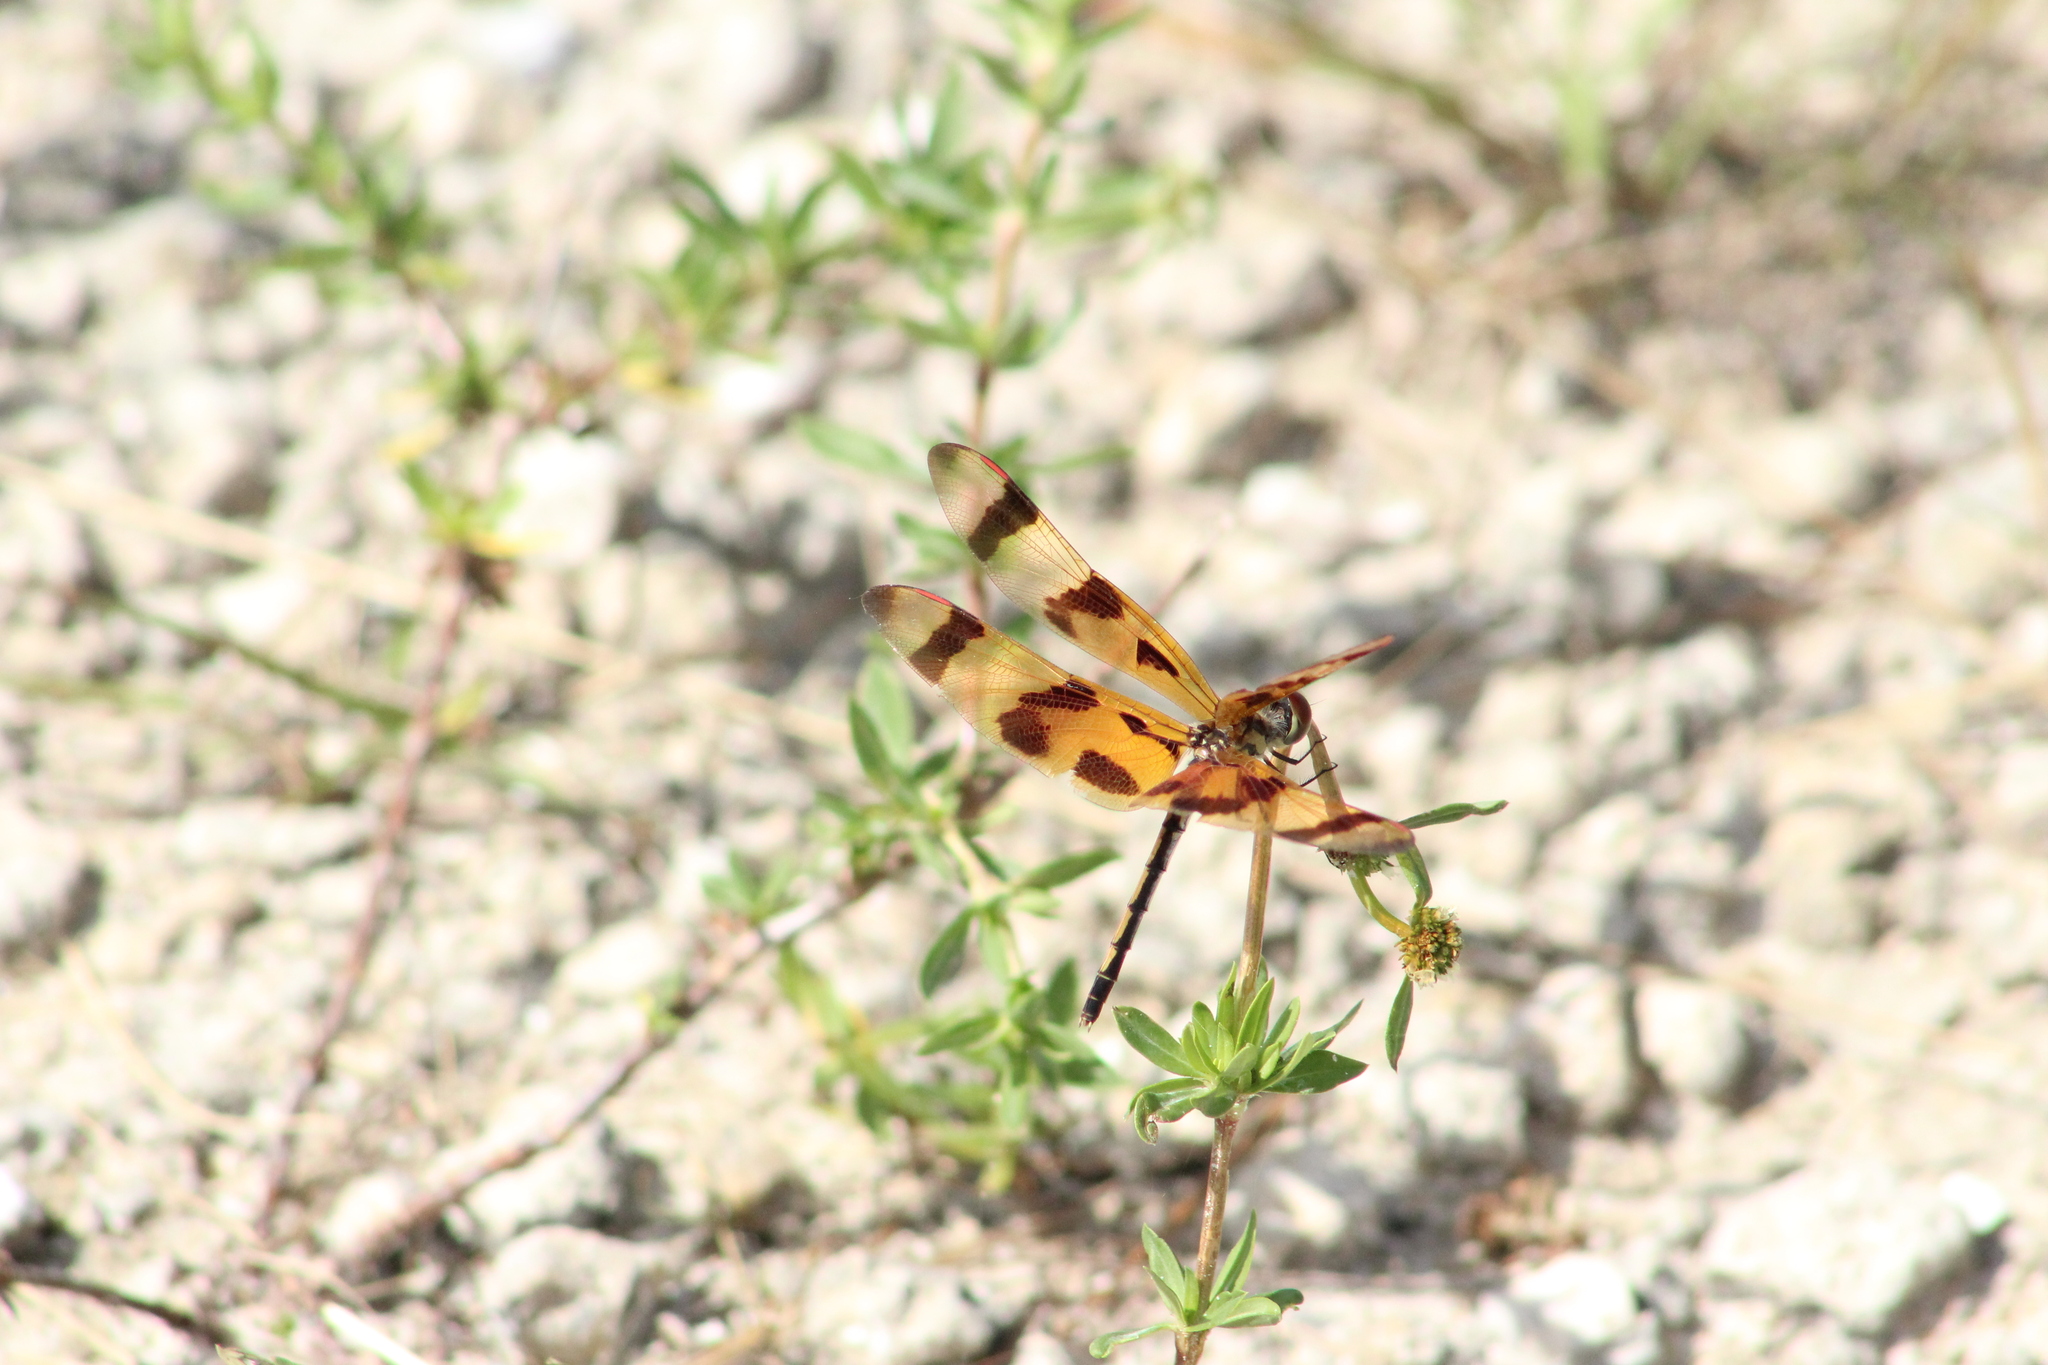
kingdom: Animalia
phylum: Arthropoda
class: Insecta
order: Odonata
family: Libellulidae
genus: Celithemis
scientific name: Celithemis eponina
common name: Halloween pennant
